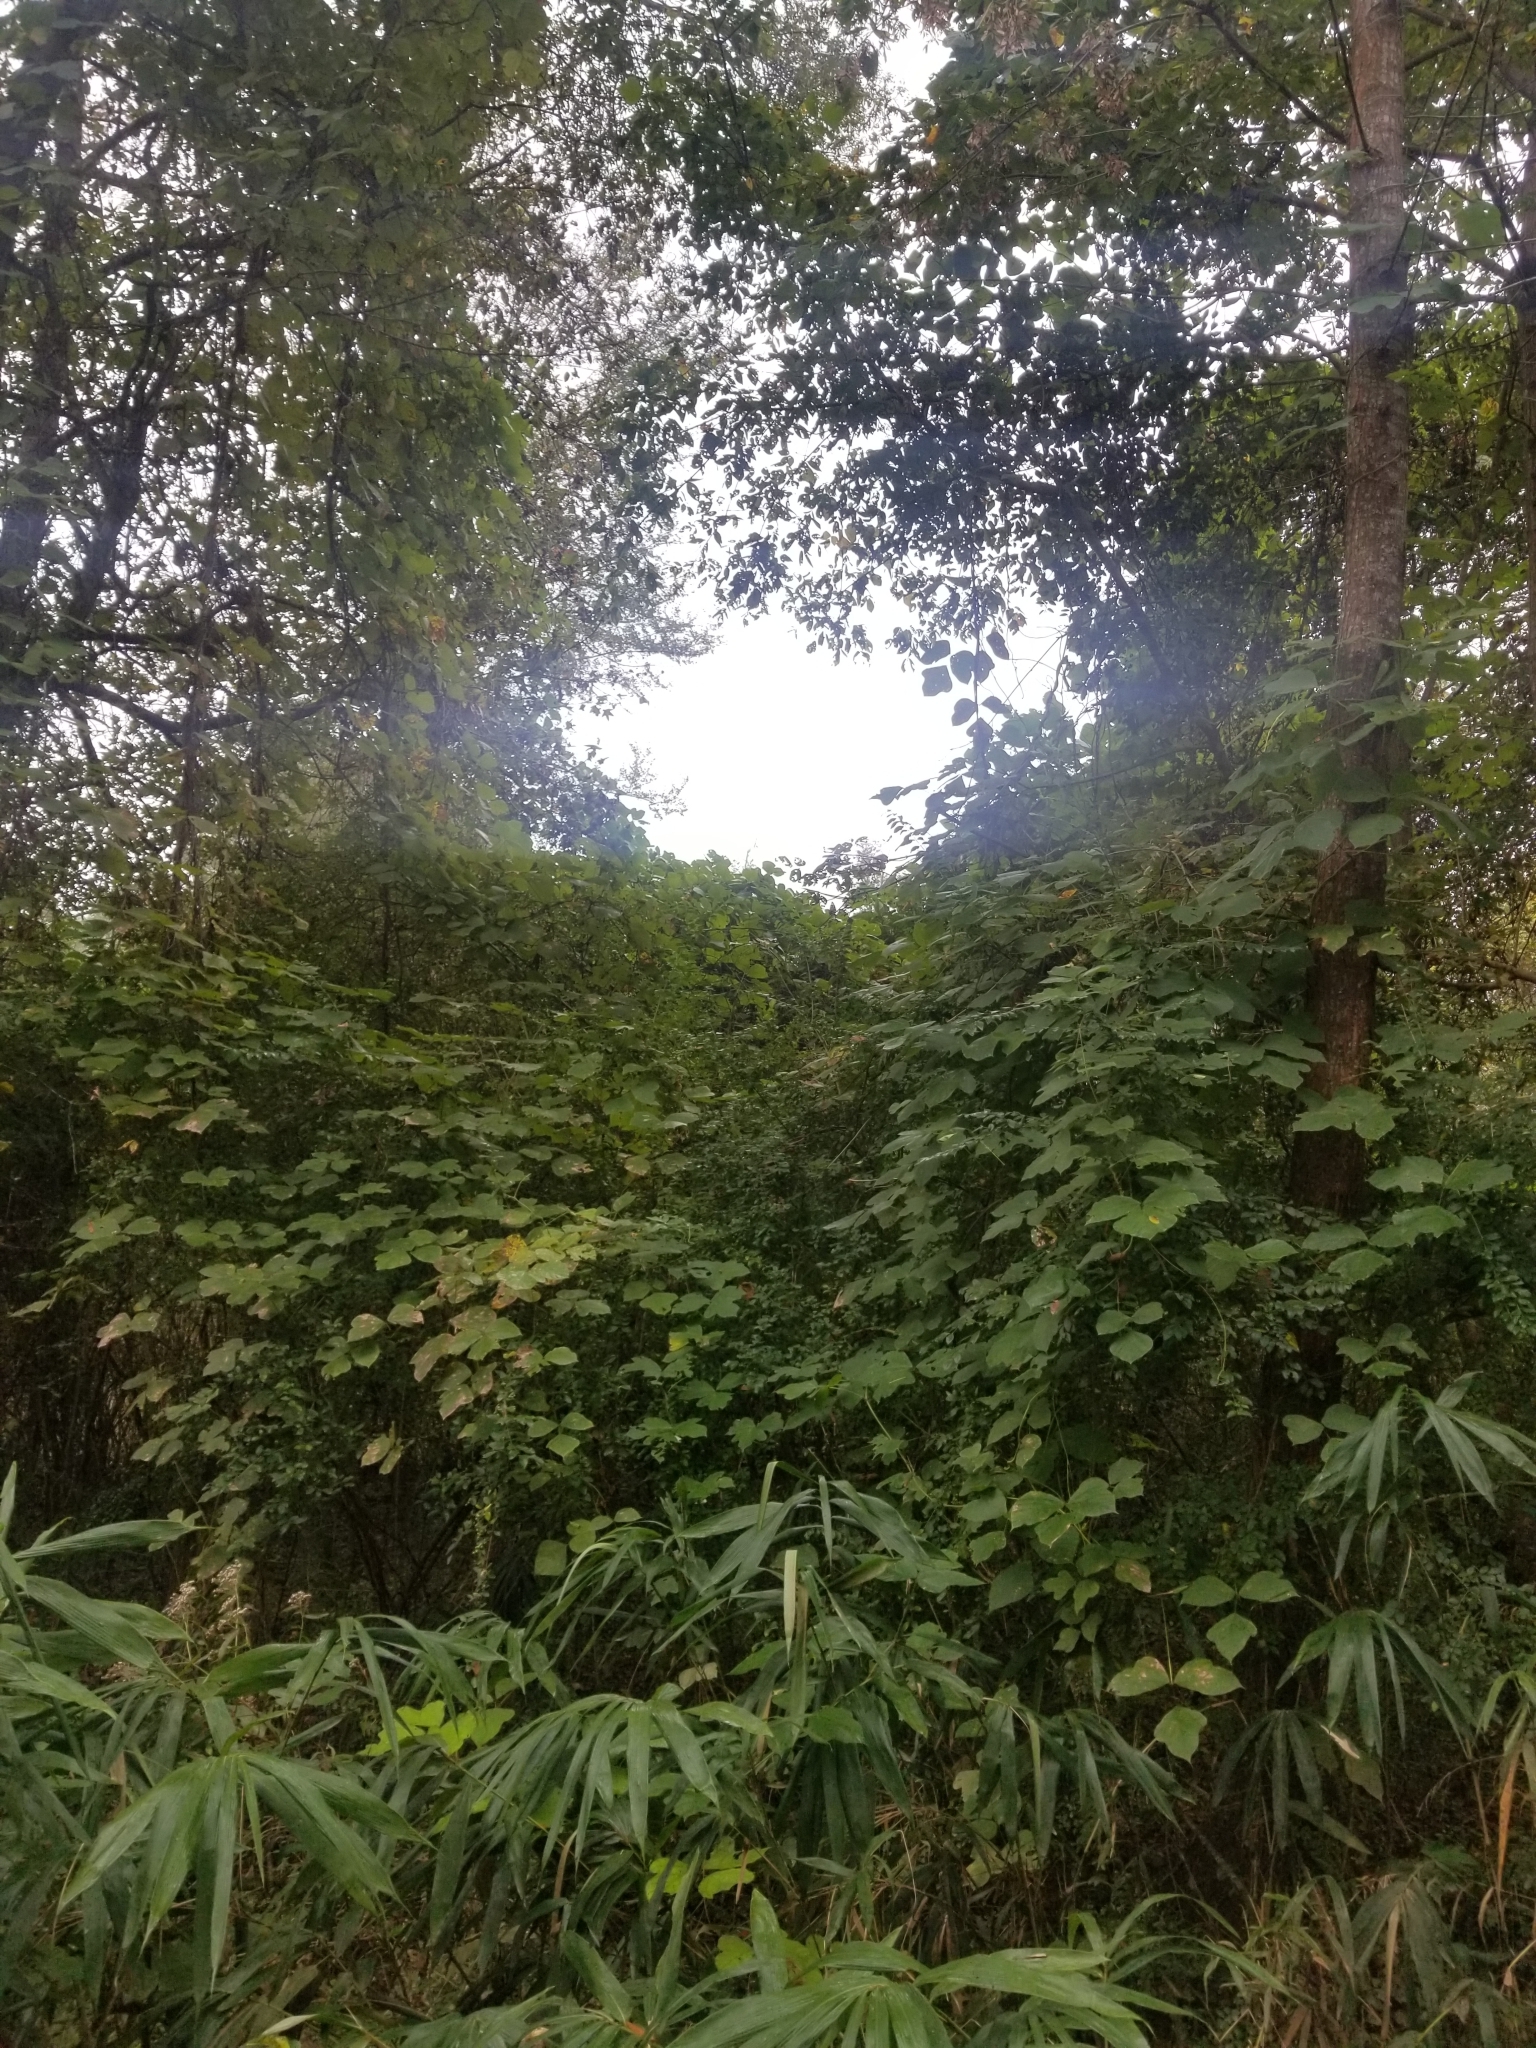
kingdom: Plantae
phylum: Tracheophyta
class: Magnoliopsida
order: Fabales
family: Fabaceae
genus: Pueraria
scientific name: Pueraria montana
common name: Kudzu
